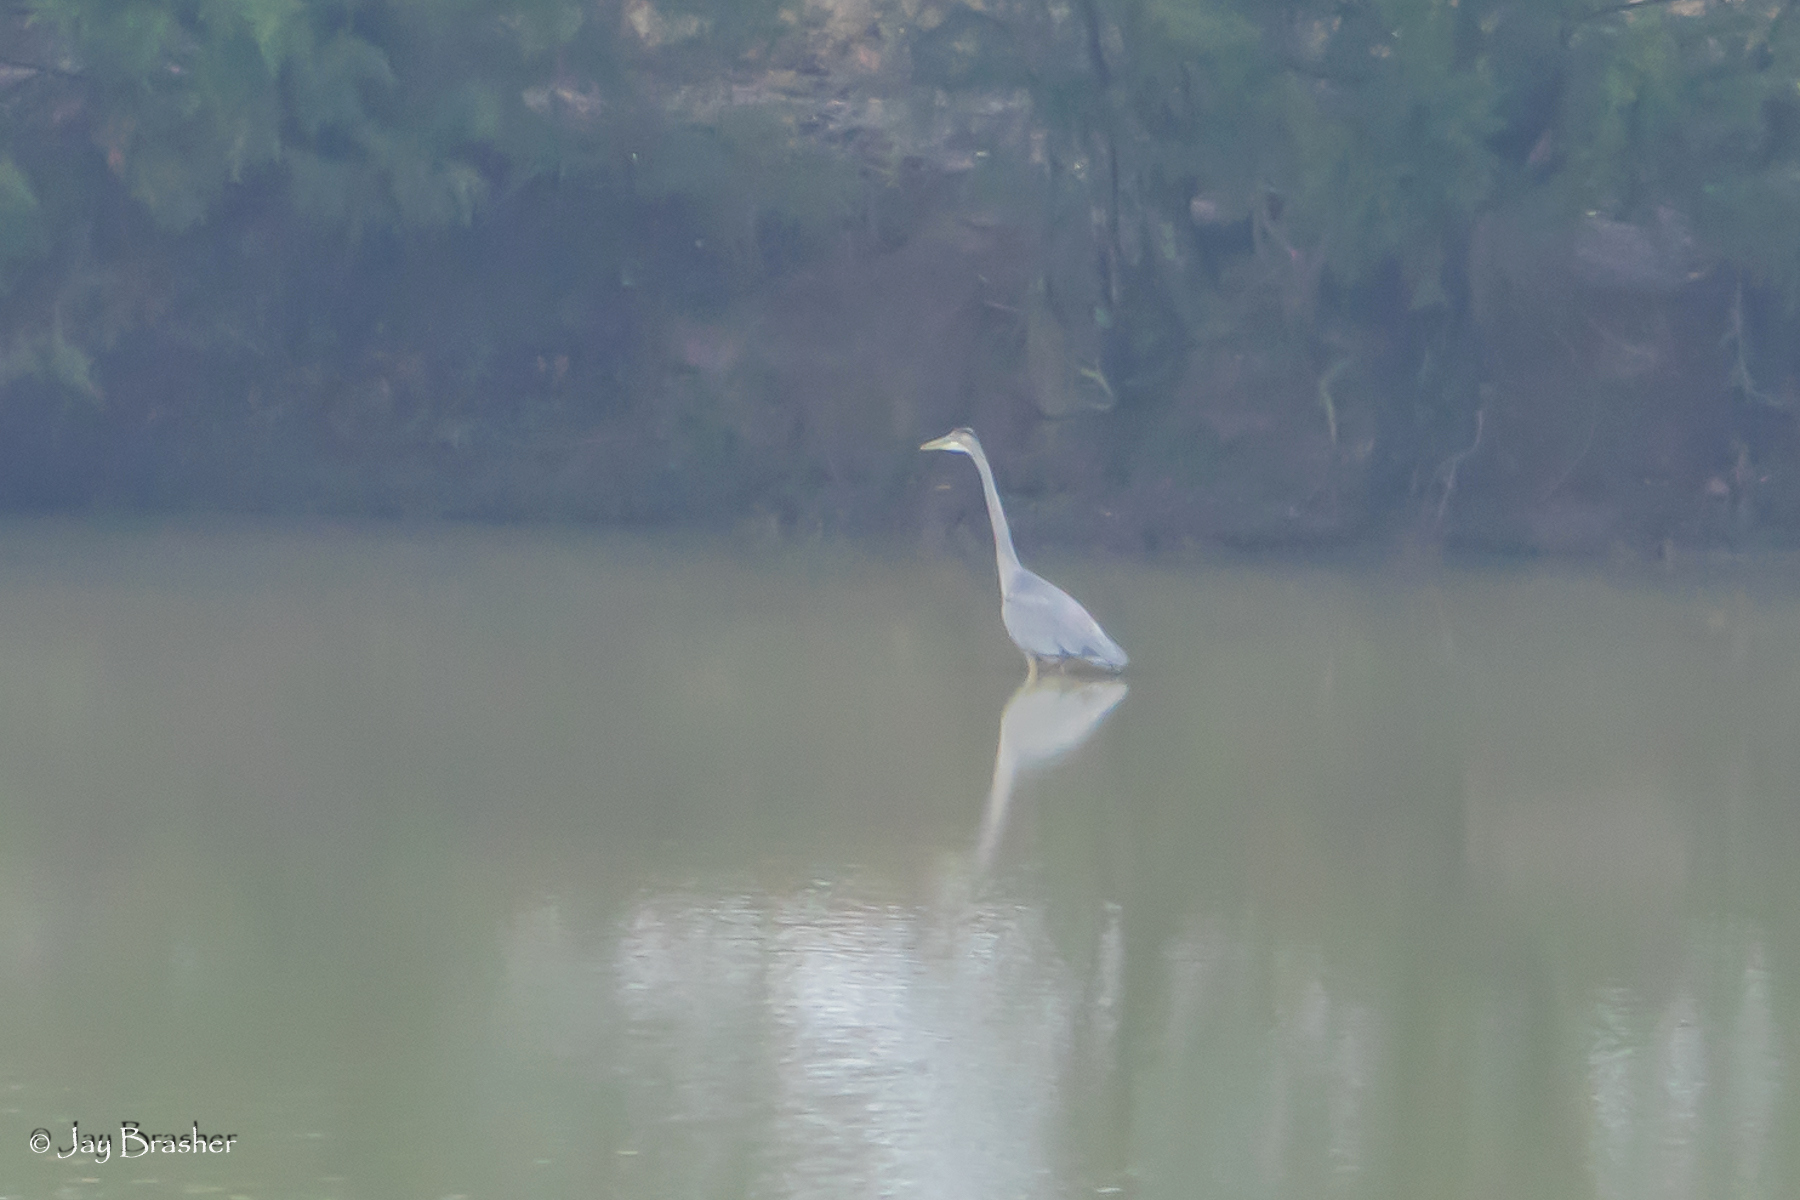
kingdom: Animalia
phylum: Chordata
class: Aves
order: Pelecaniformes
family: Ardeidae
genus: Ardea
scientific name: Ardea herodias
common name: Great blue heron
